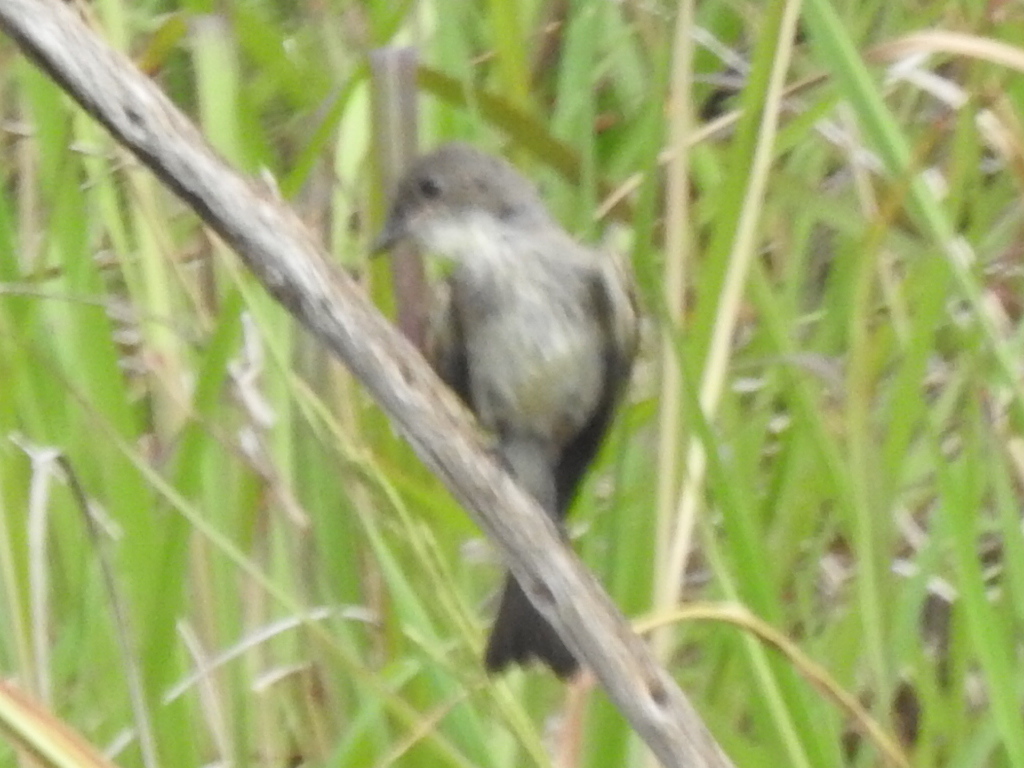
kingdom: Animalia
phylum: Chordata
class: Aves
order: Passeriformes
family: Tyrannidae
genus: Sayornis
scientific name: Sayornis phoebe
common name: Eastern phoebe
